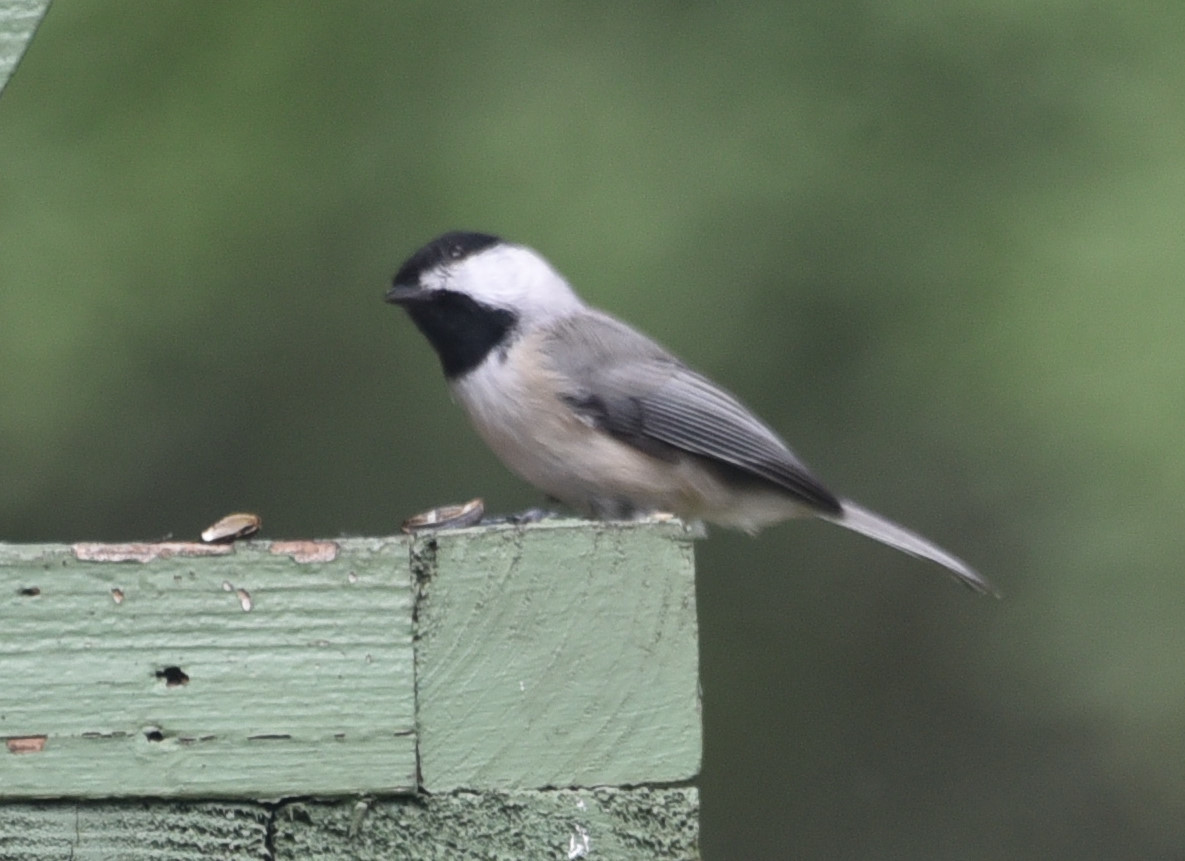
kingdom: Animalia
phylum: Chordata
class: Aves
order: Passeriformes
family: Paridae
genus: Poecile
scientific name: Poecile carolinensis
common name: Carolina chickadee
